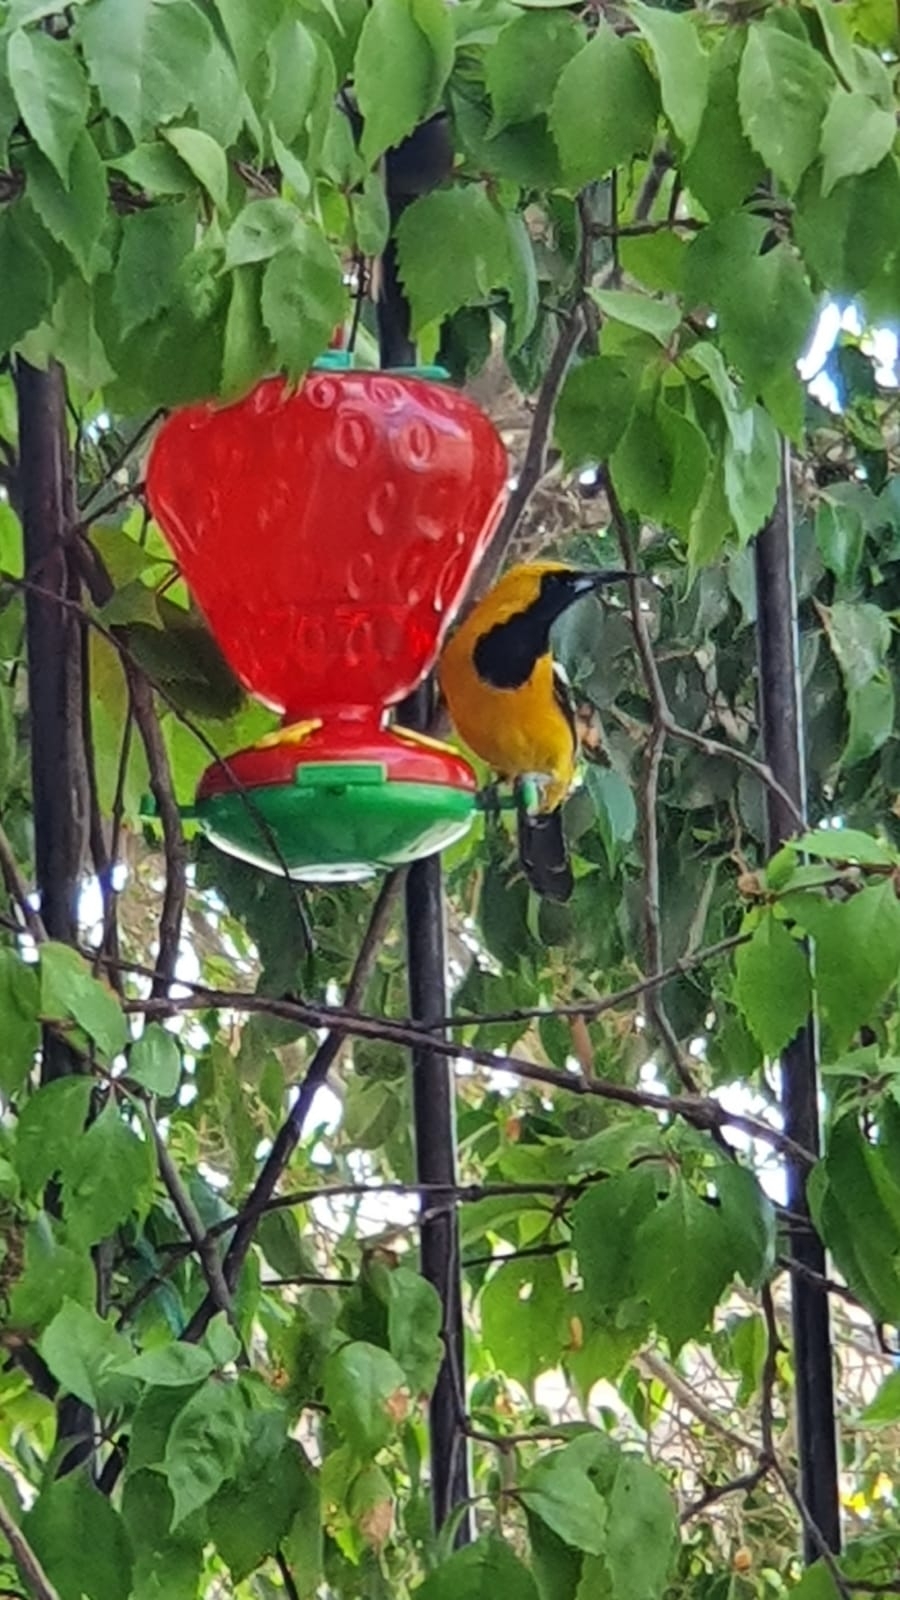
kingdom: Animalia
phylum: Chordata
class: Aves
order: Passeriformes
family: Icteridae
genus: Icterus
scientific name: Icterus cucullatus
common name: Hooded oriole
